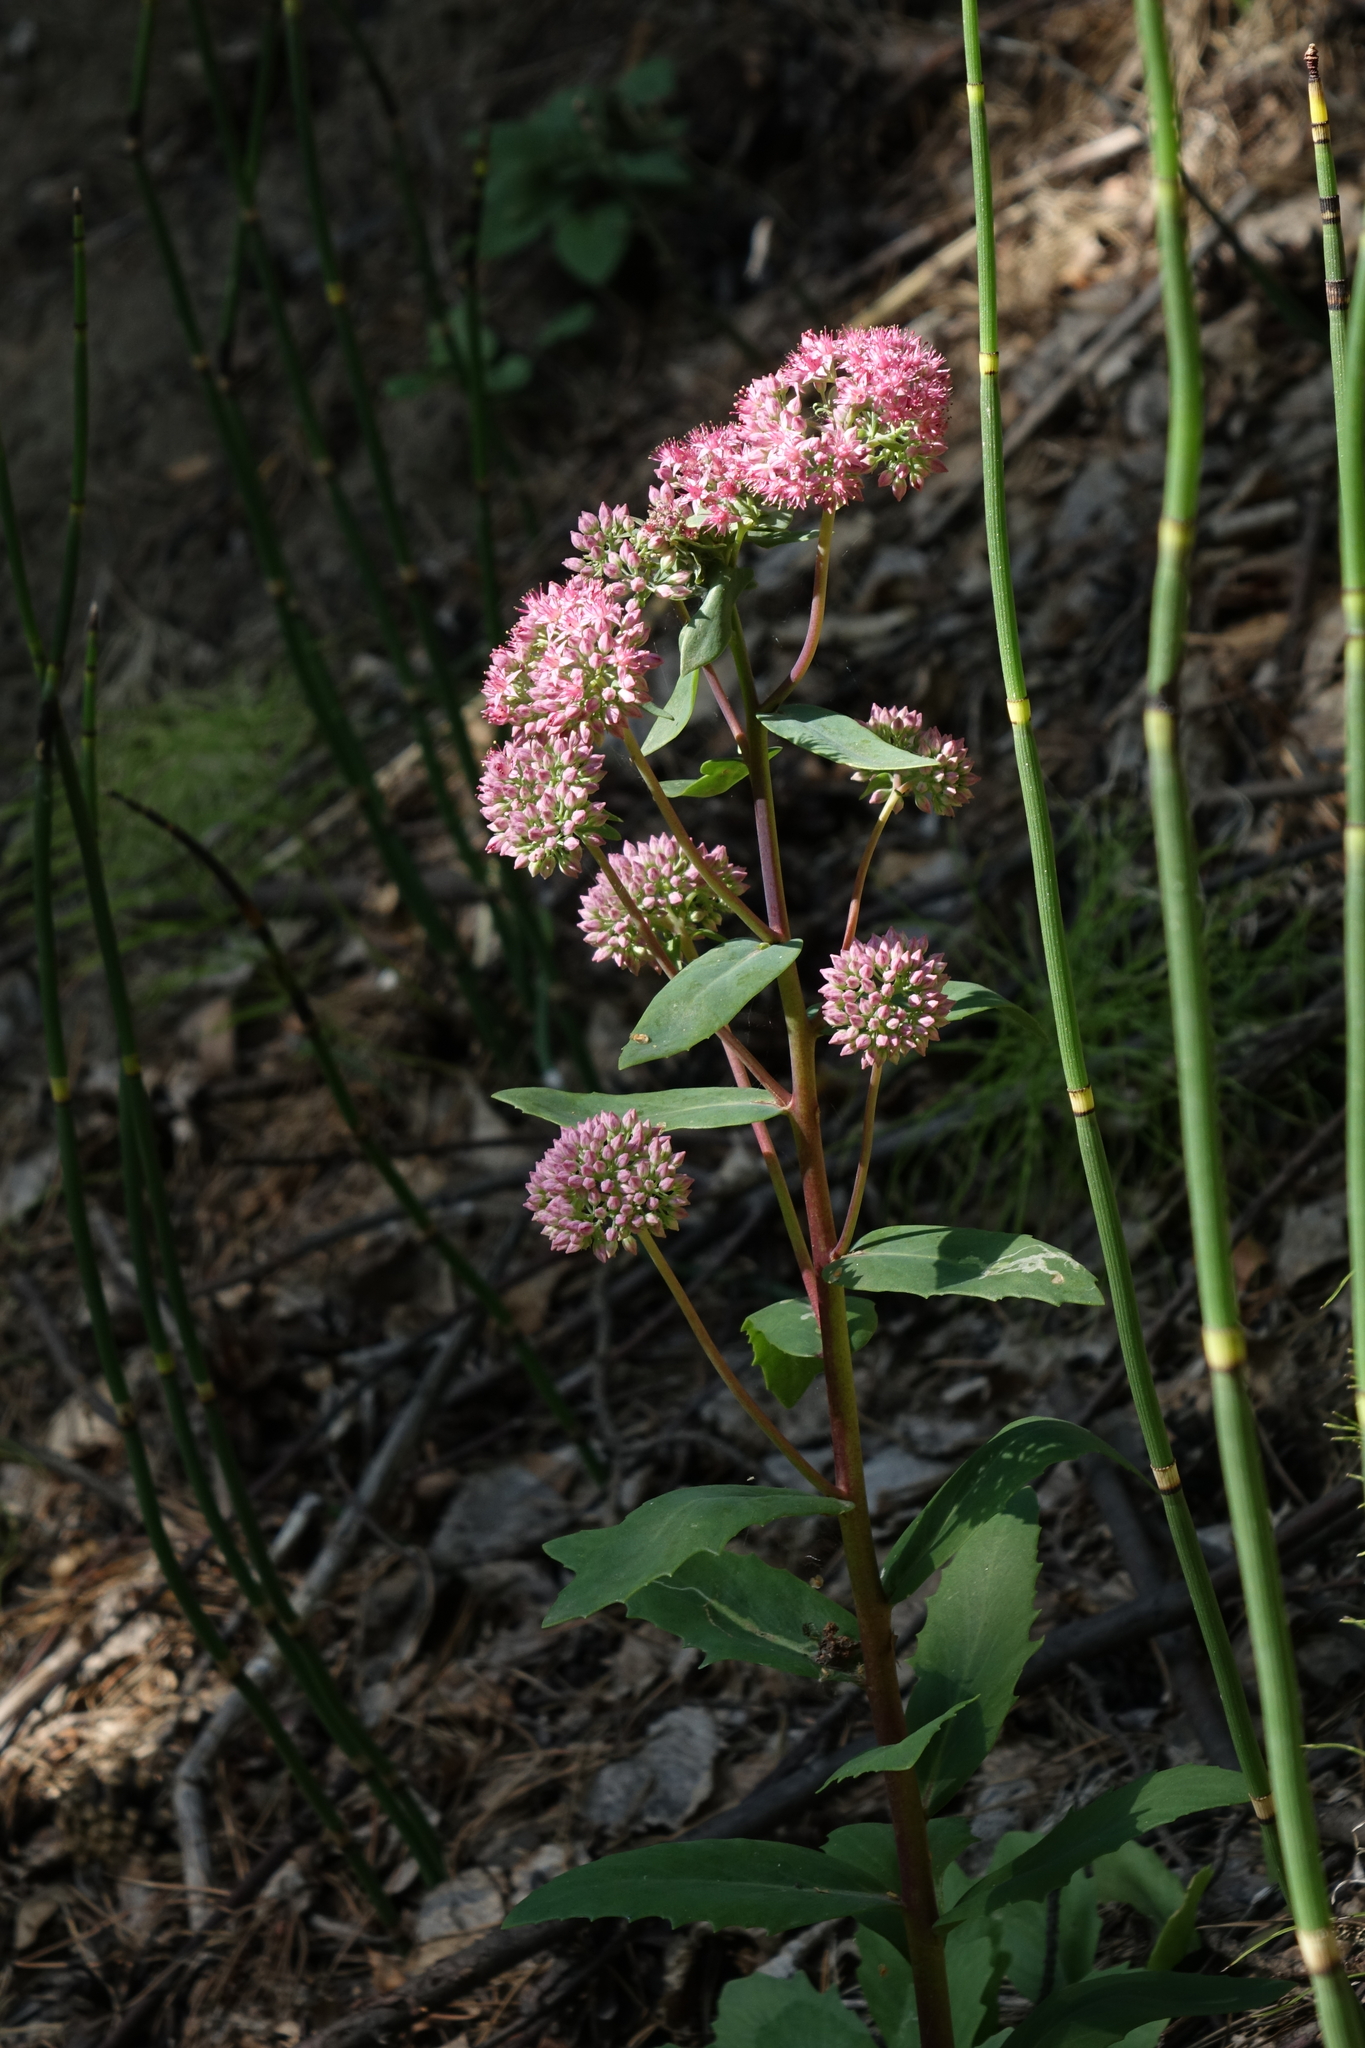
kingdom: Plantae
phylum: Tracheophyta
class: Magnoliopsida
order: Saxifragales
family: Crassulaceae
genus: Hylotelephium
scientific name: Hylotelephium telephium
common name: Live-forever
